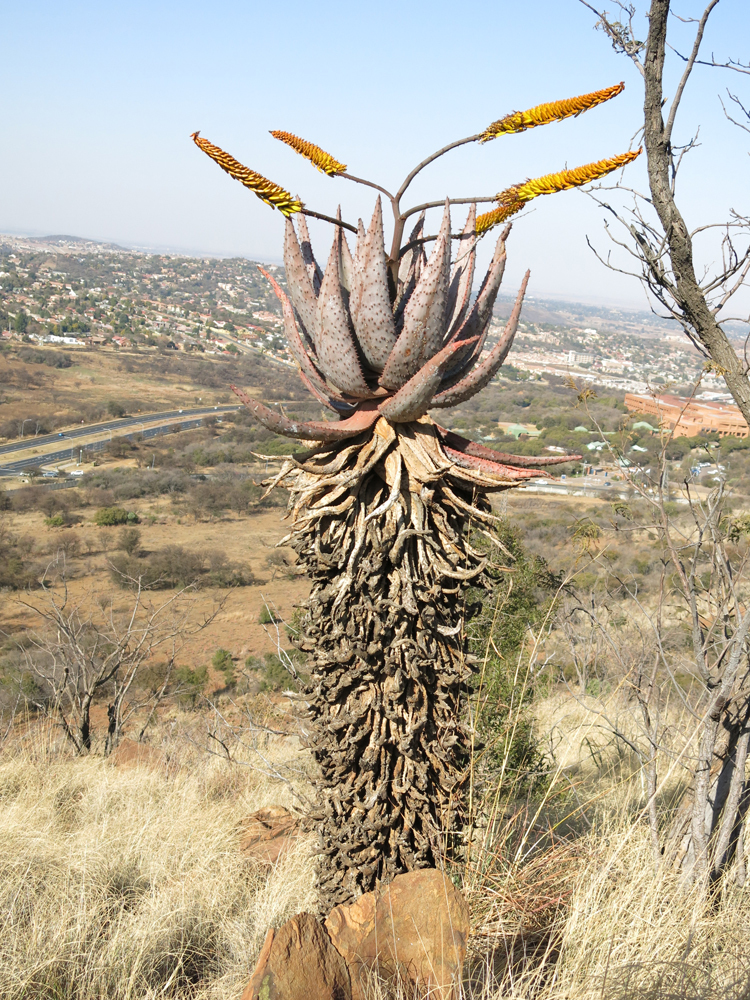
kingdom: Plantae
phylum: Tracheophyta
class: Liliopsida
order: Asparagales
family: Asphodelaceae
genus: Aloe
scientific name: Aloe marlothii
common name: Flat-flowered aloe
